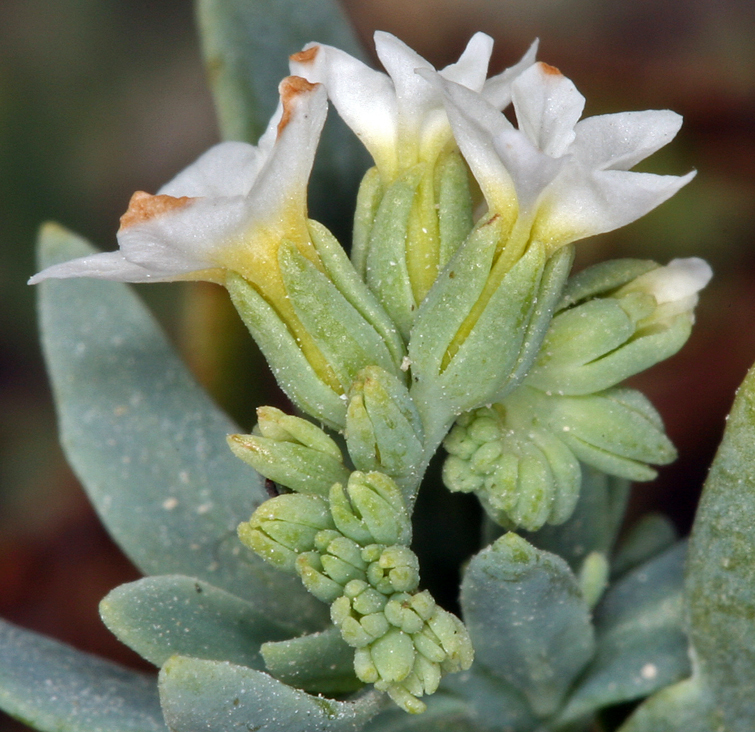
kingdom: Plantae
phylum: Tracheophyta
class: Magnoliopsida
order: Boraginales
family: Heliotropiaceae
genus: Heliotropium
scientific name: Heliotropium curassavicum
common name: Seaside heliotrope
